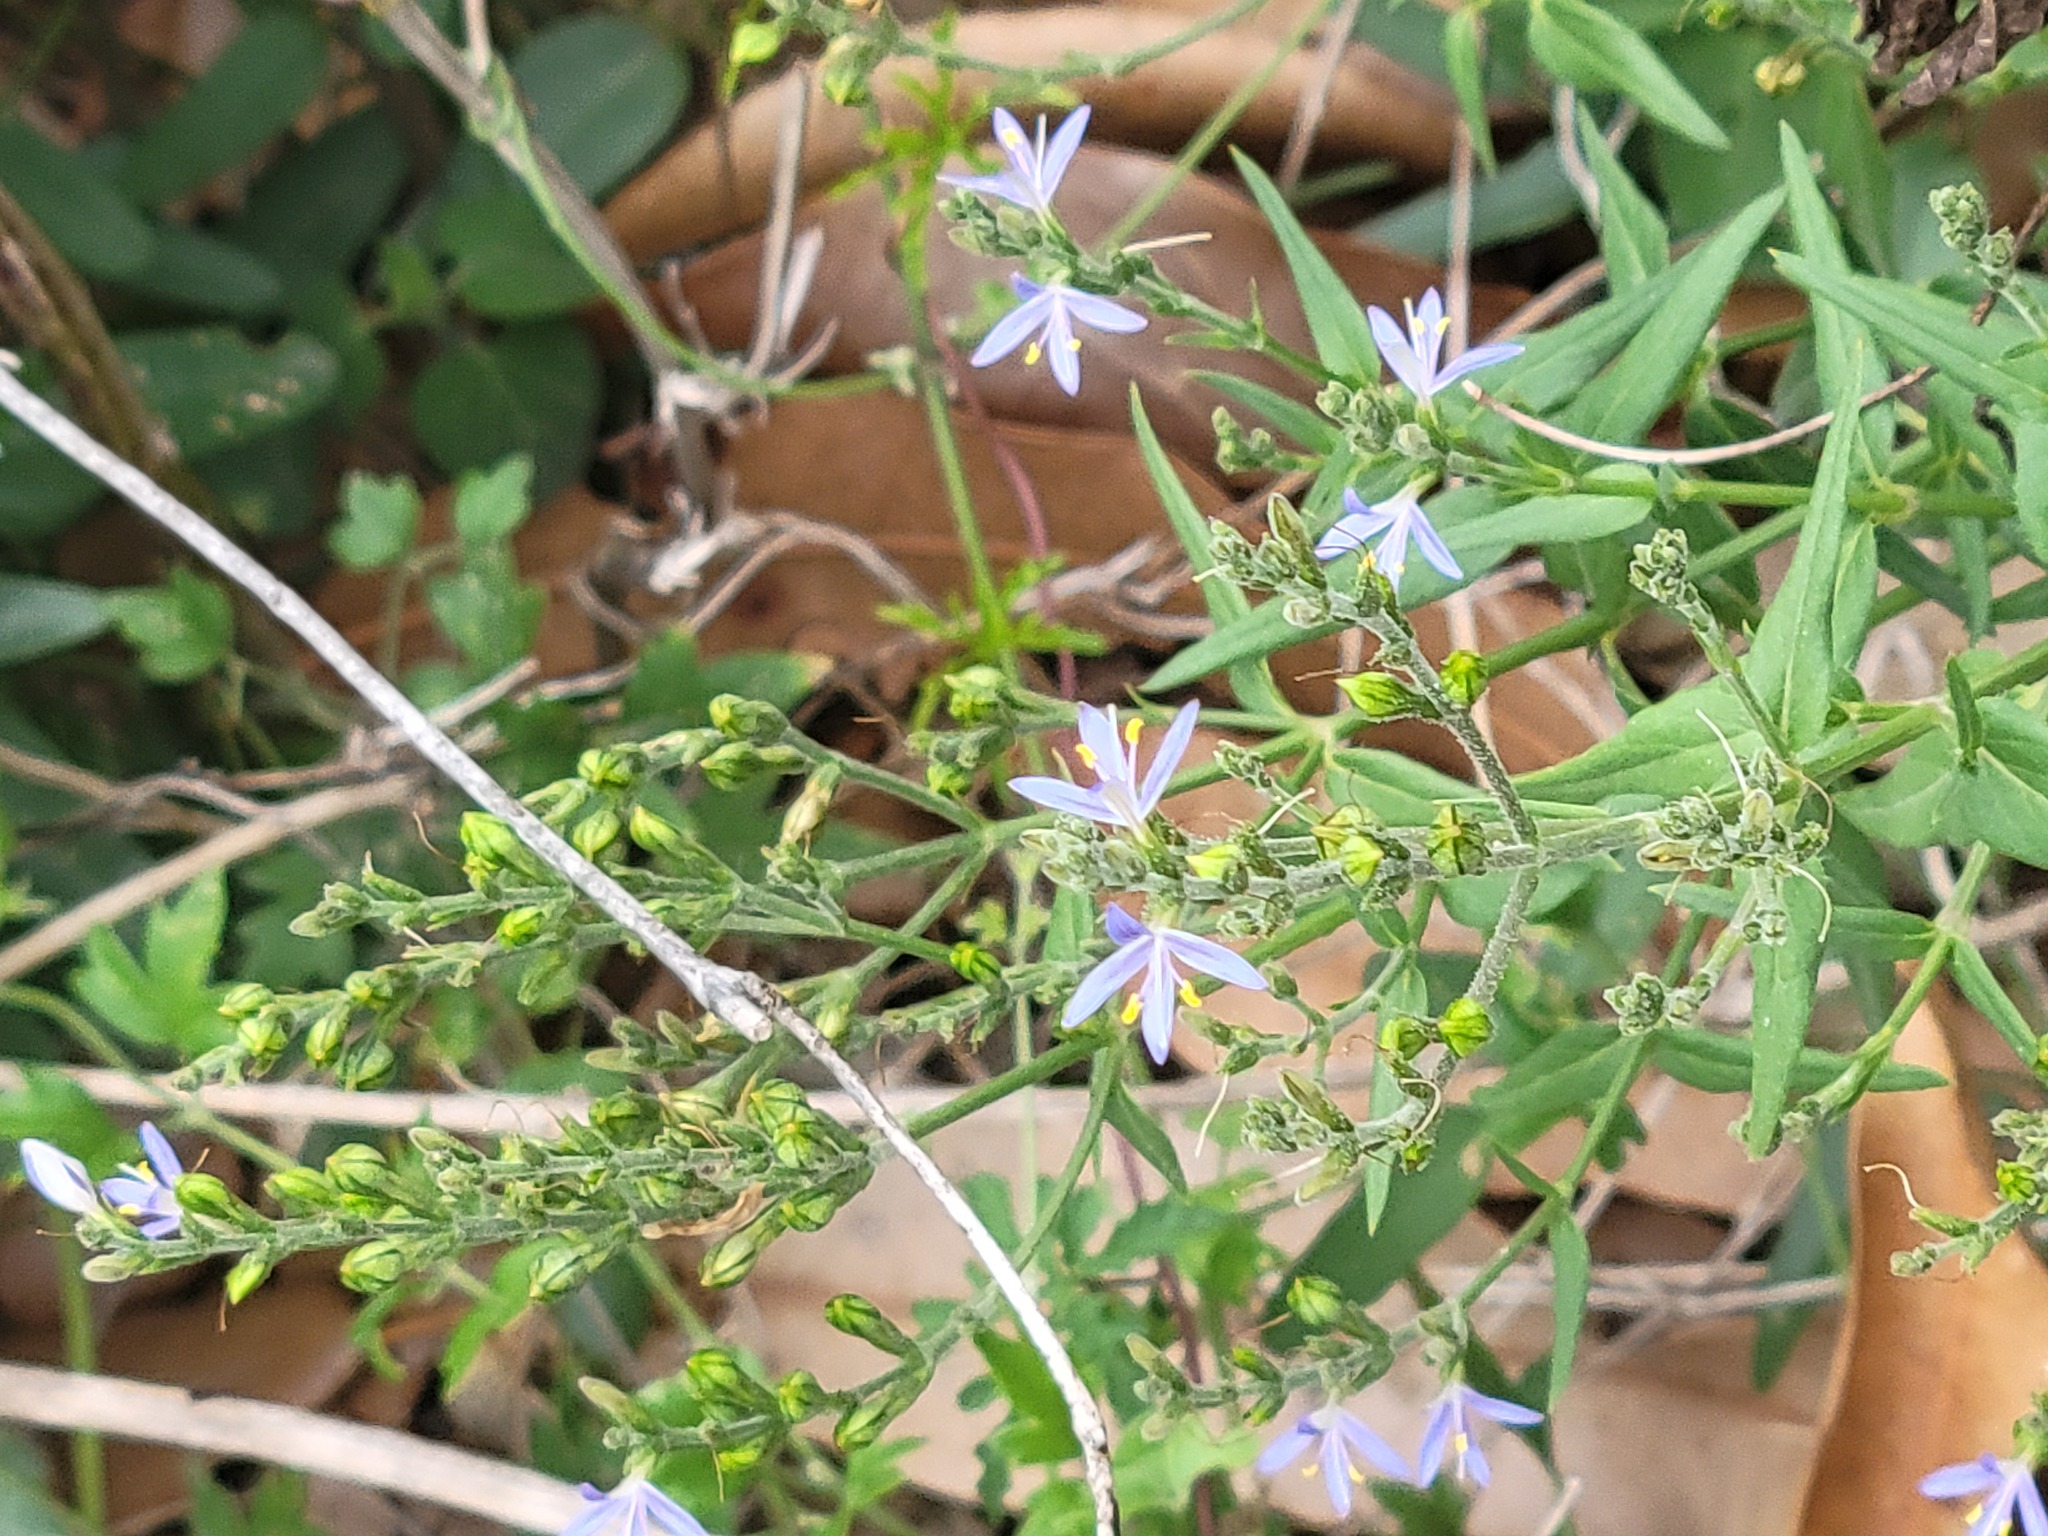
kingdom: Plantae
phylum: Tracheophyta
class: Magnoliopsida
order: Lamiales
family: Acanthaceae
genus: Carlowrightia
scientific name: Carlowrightia parviflora
